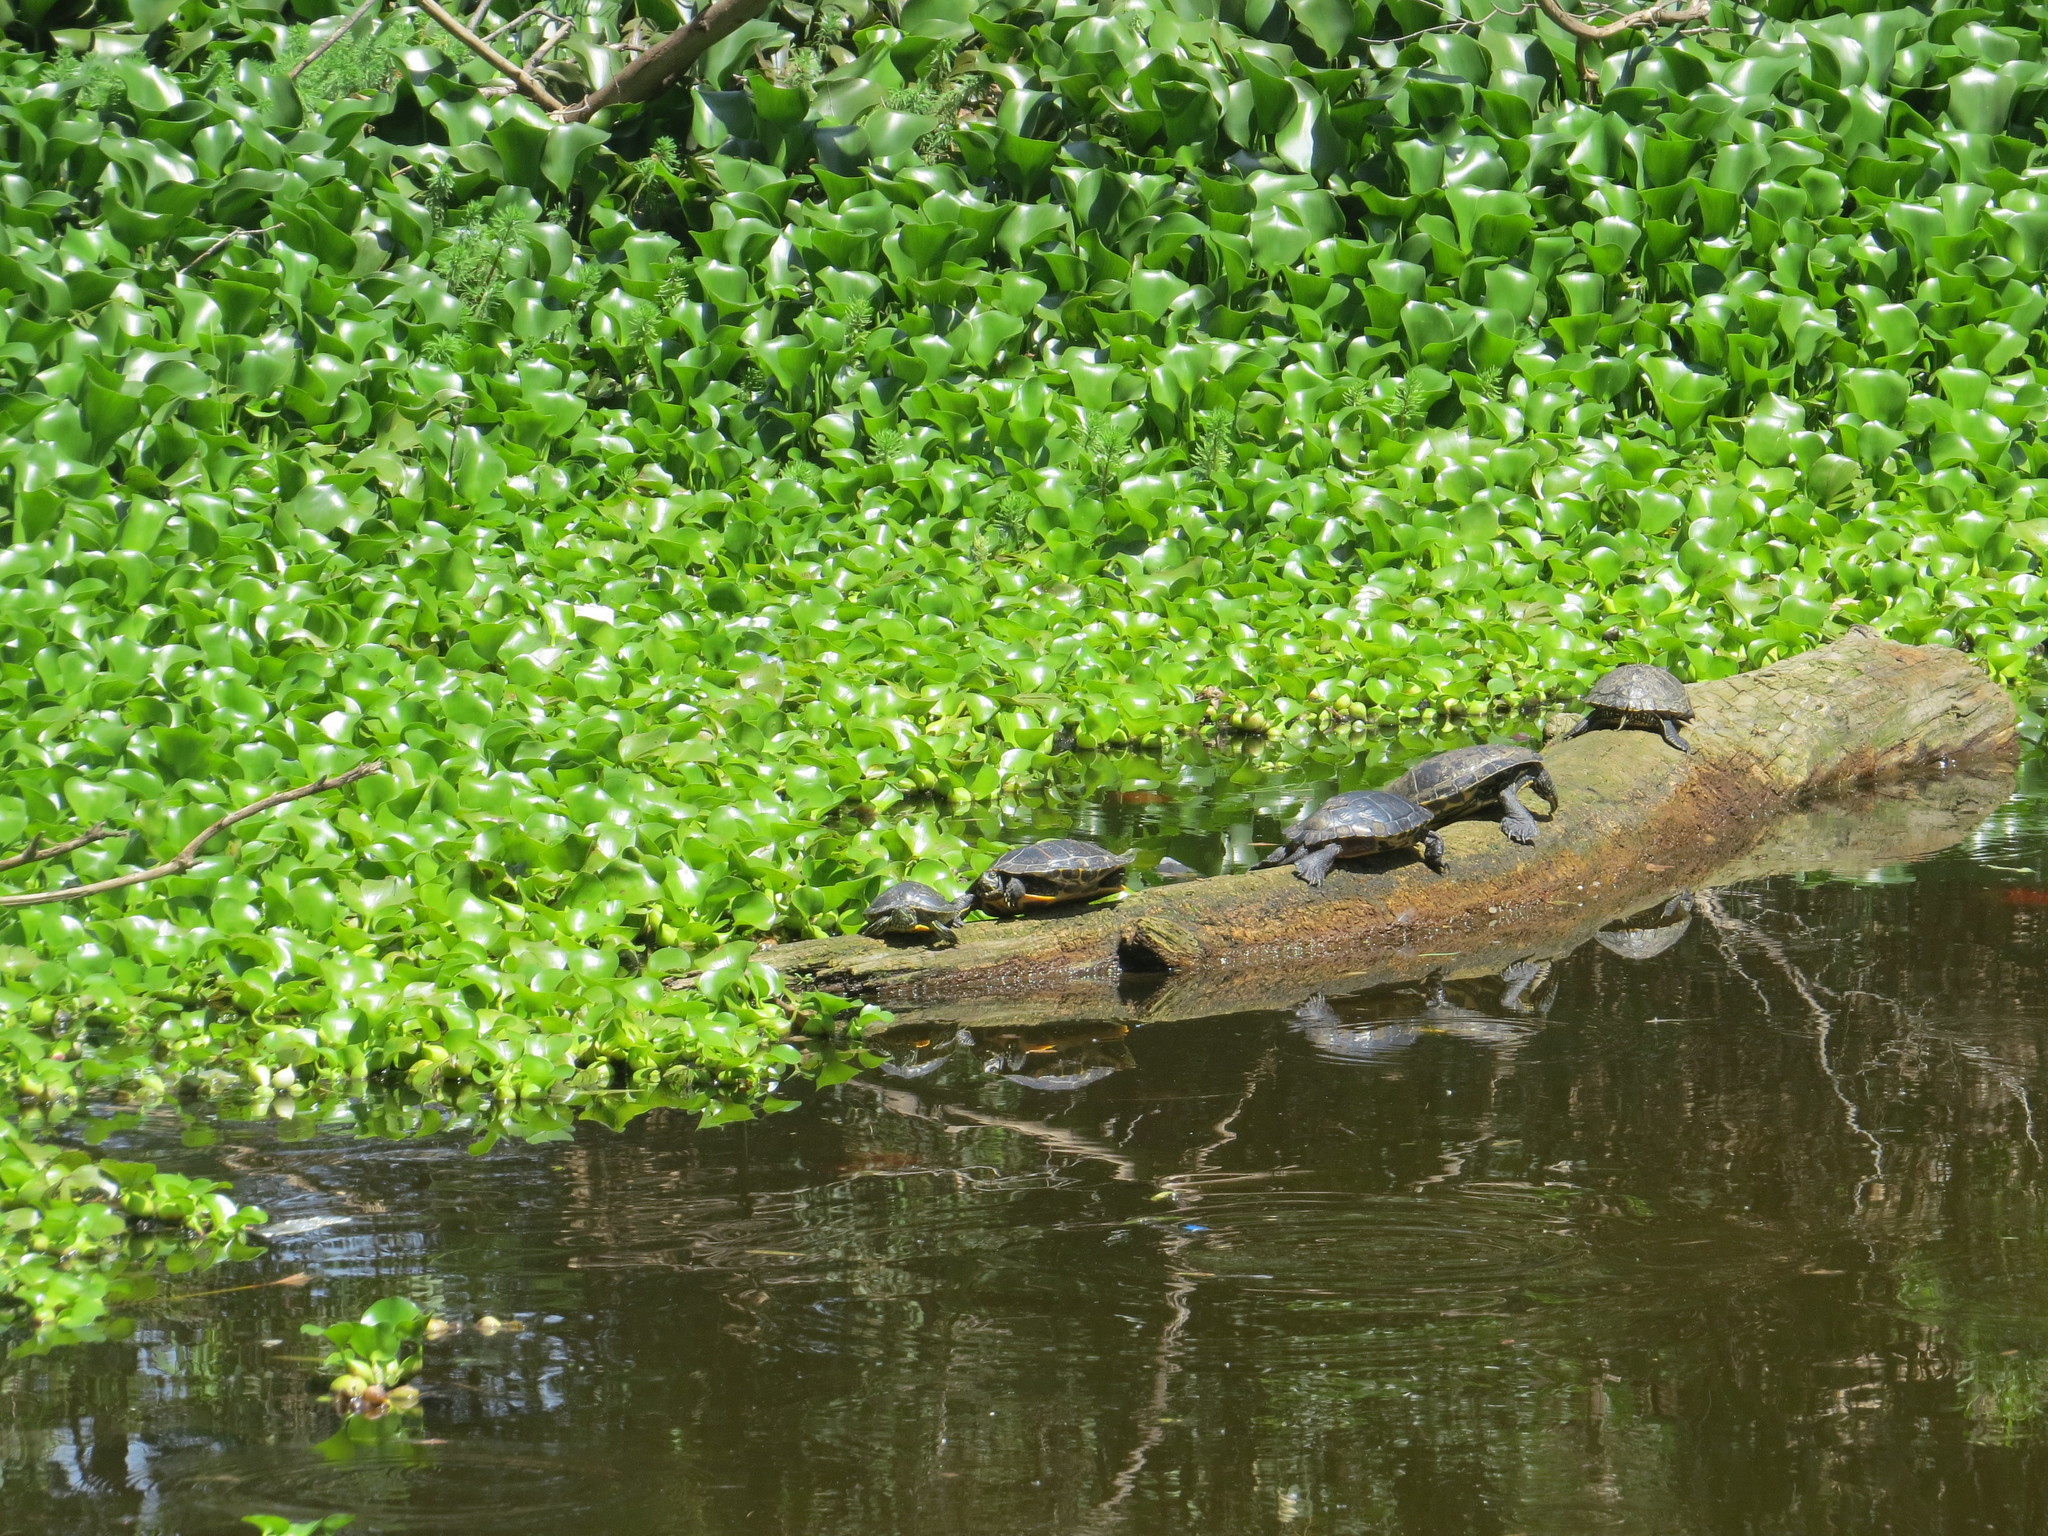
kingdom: Animalia
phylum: Chordata
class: Testudines
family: Emydidae
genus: Trachemys
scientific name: Trachemys scripta
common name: Slider
